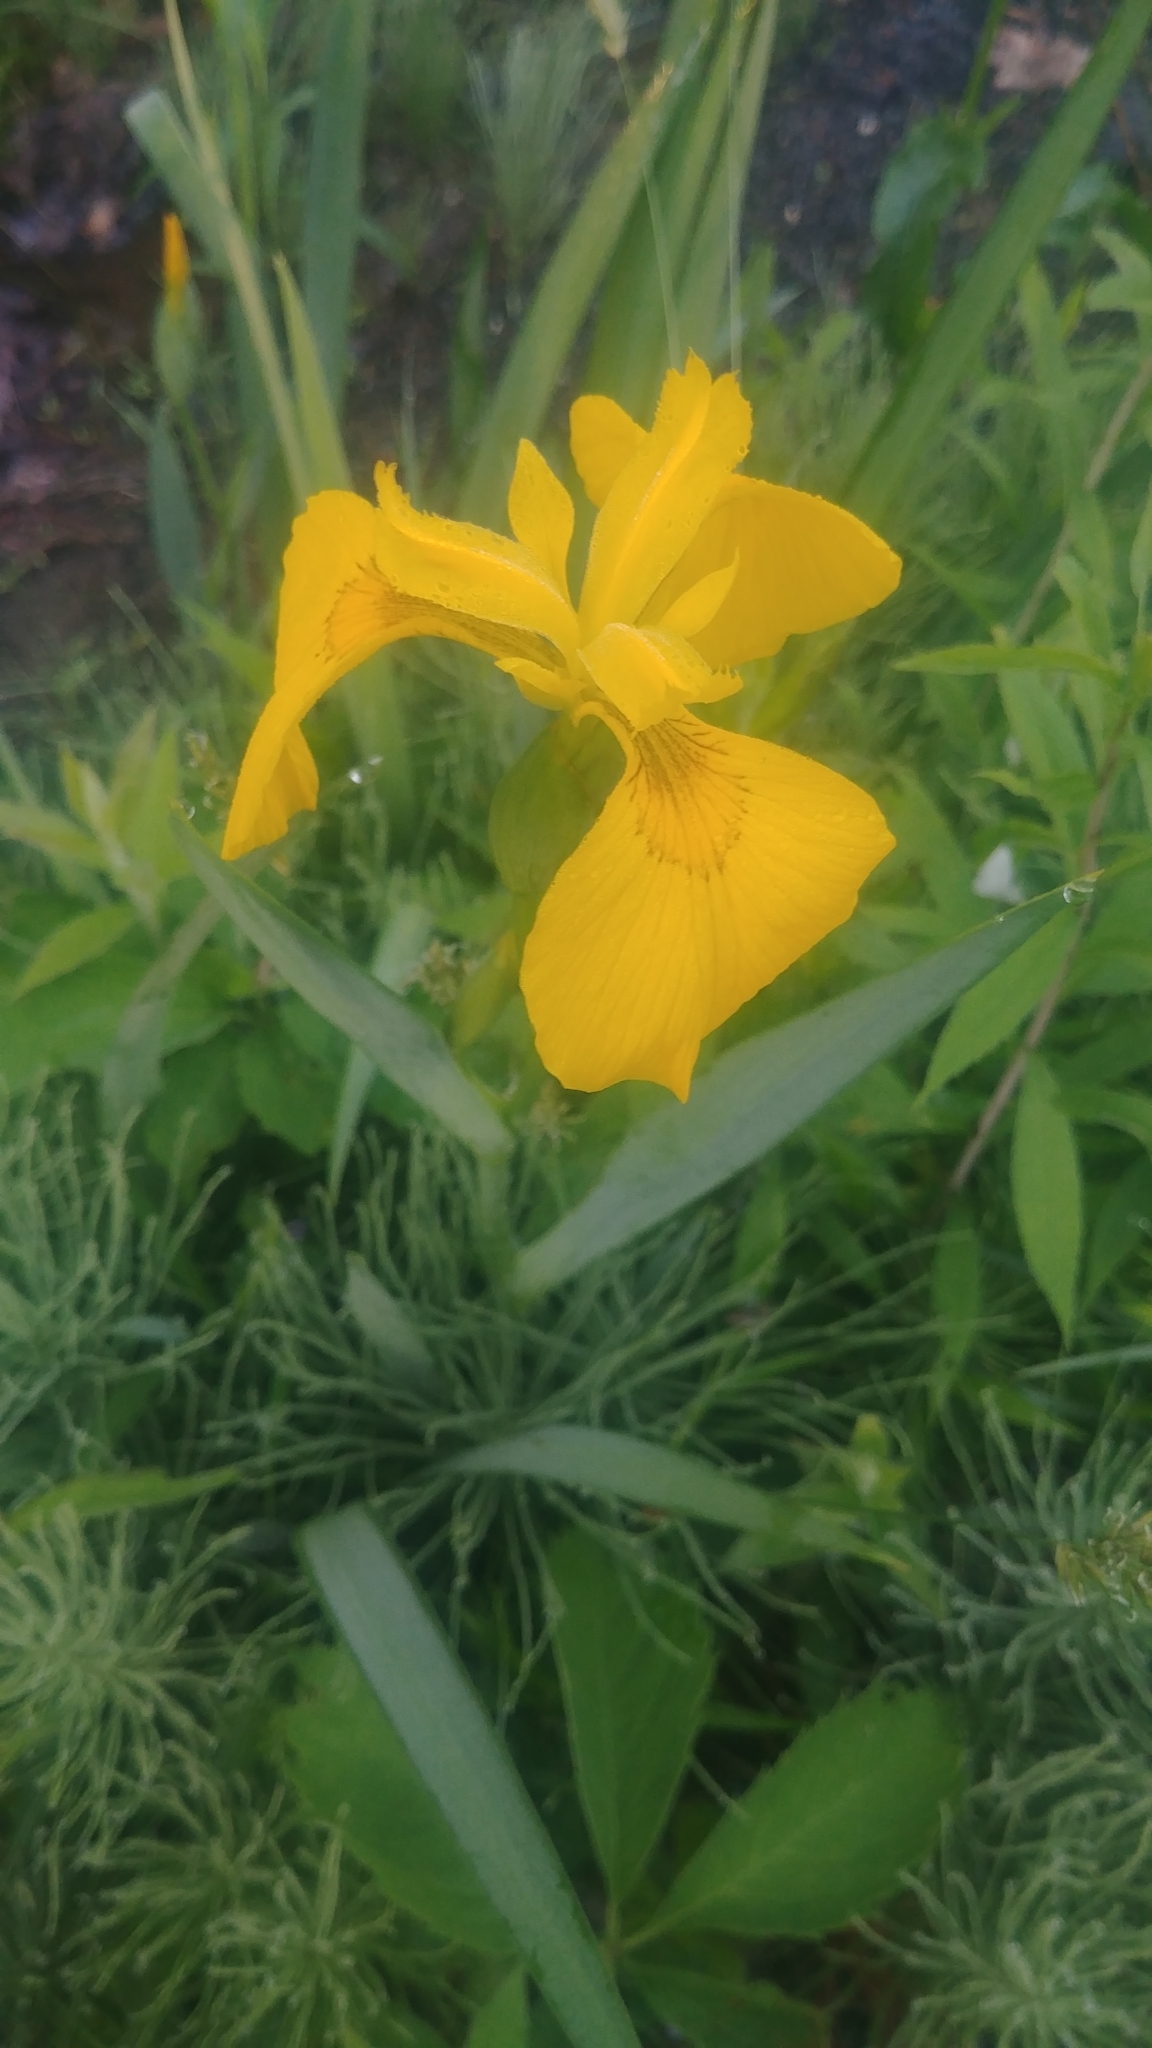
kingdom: Plantae
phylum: Tracheophyta
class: Liliopsida
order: Asparagales
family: Iridaceae
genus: Iris
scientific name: Iris pseudacorus
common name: Yellow flag
